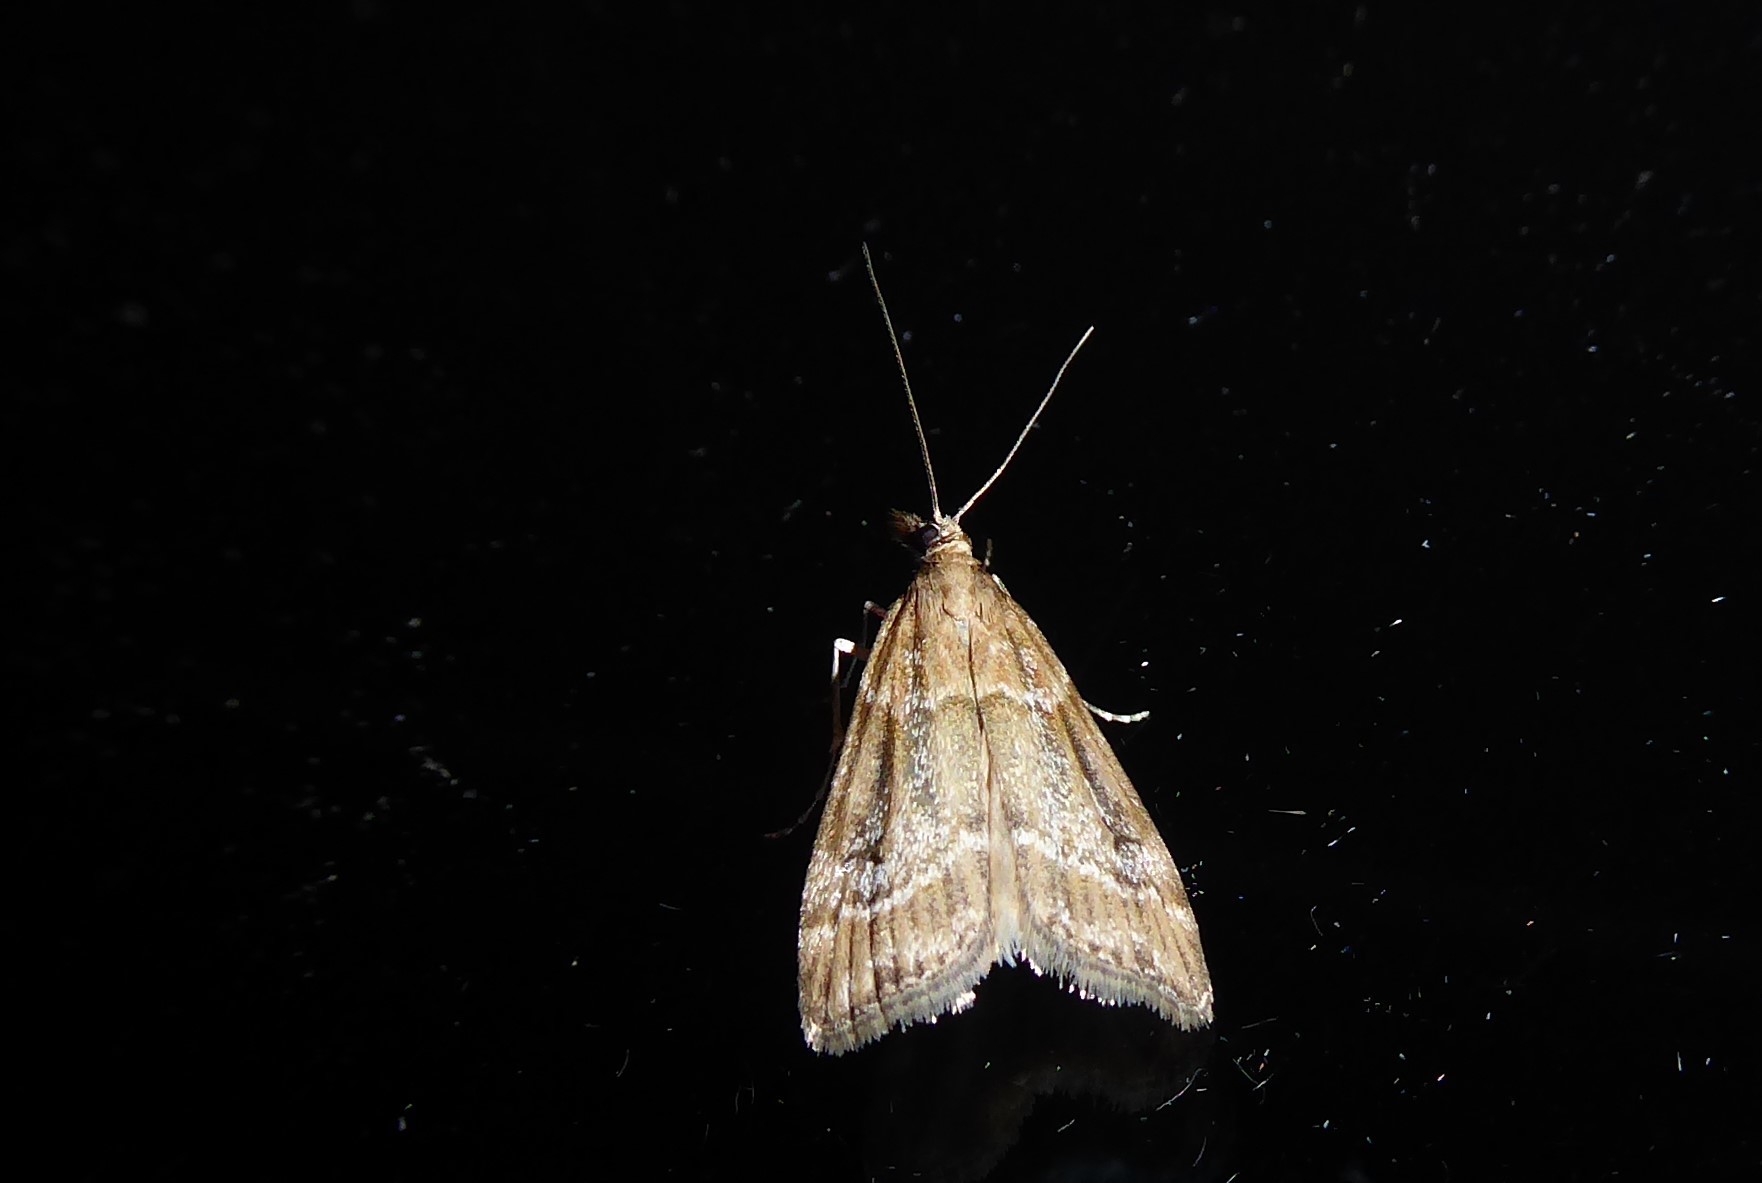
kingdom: Animalia
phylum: Arthropoda
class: Insecta
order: Lepidoptera
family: Crambidae
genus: Eudonia
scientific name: Eudonia chalara
